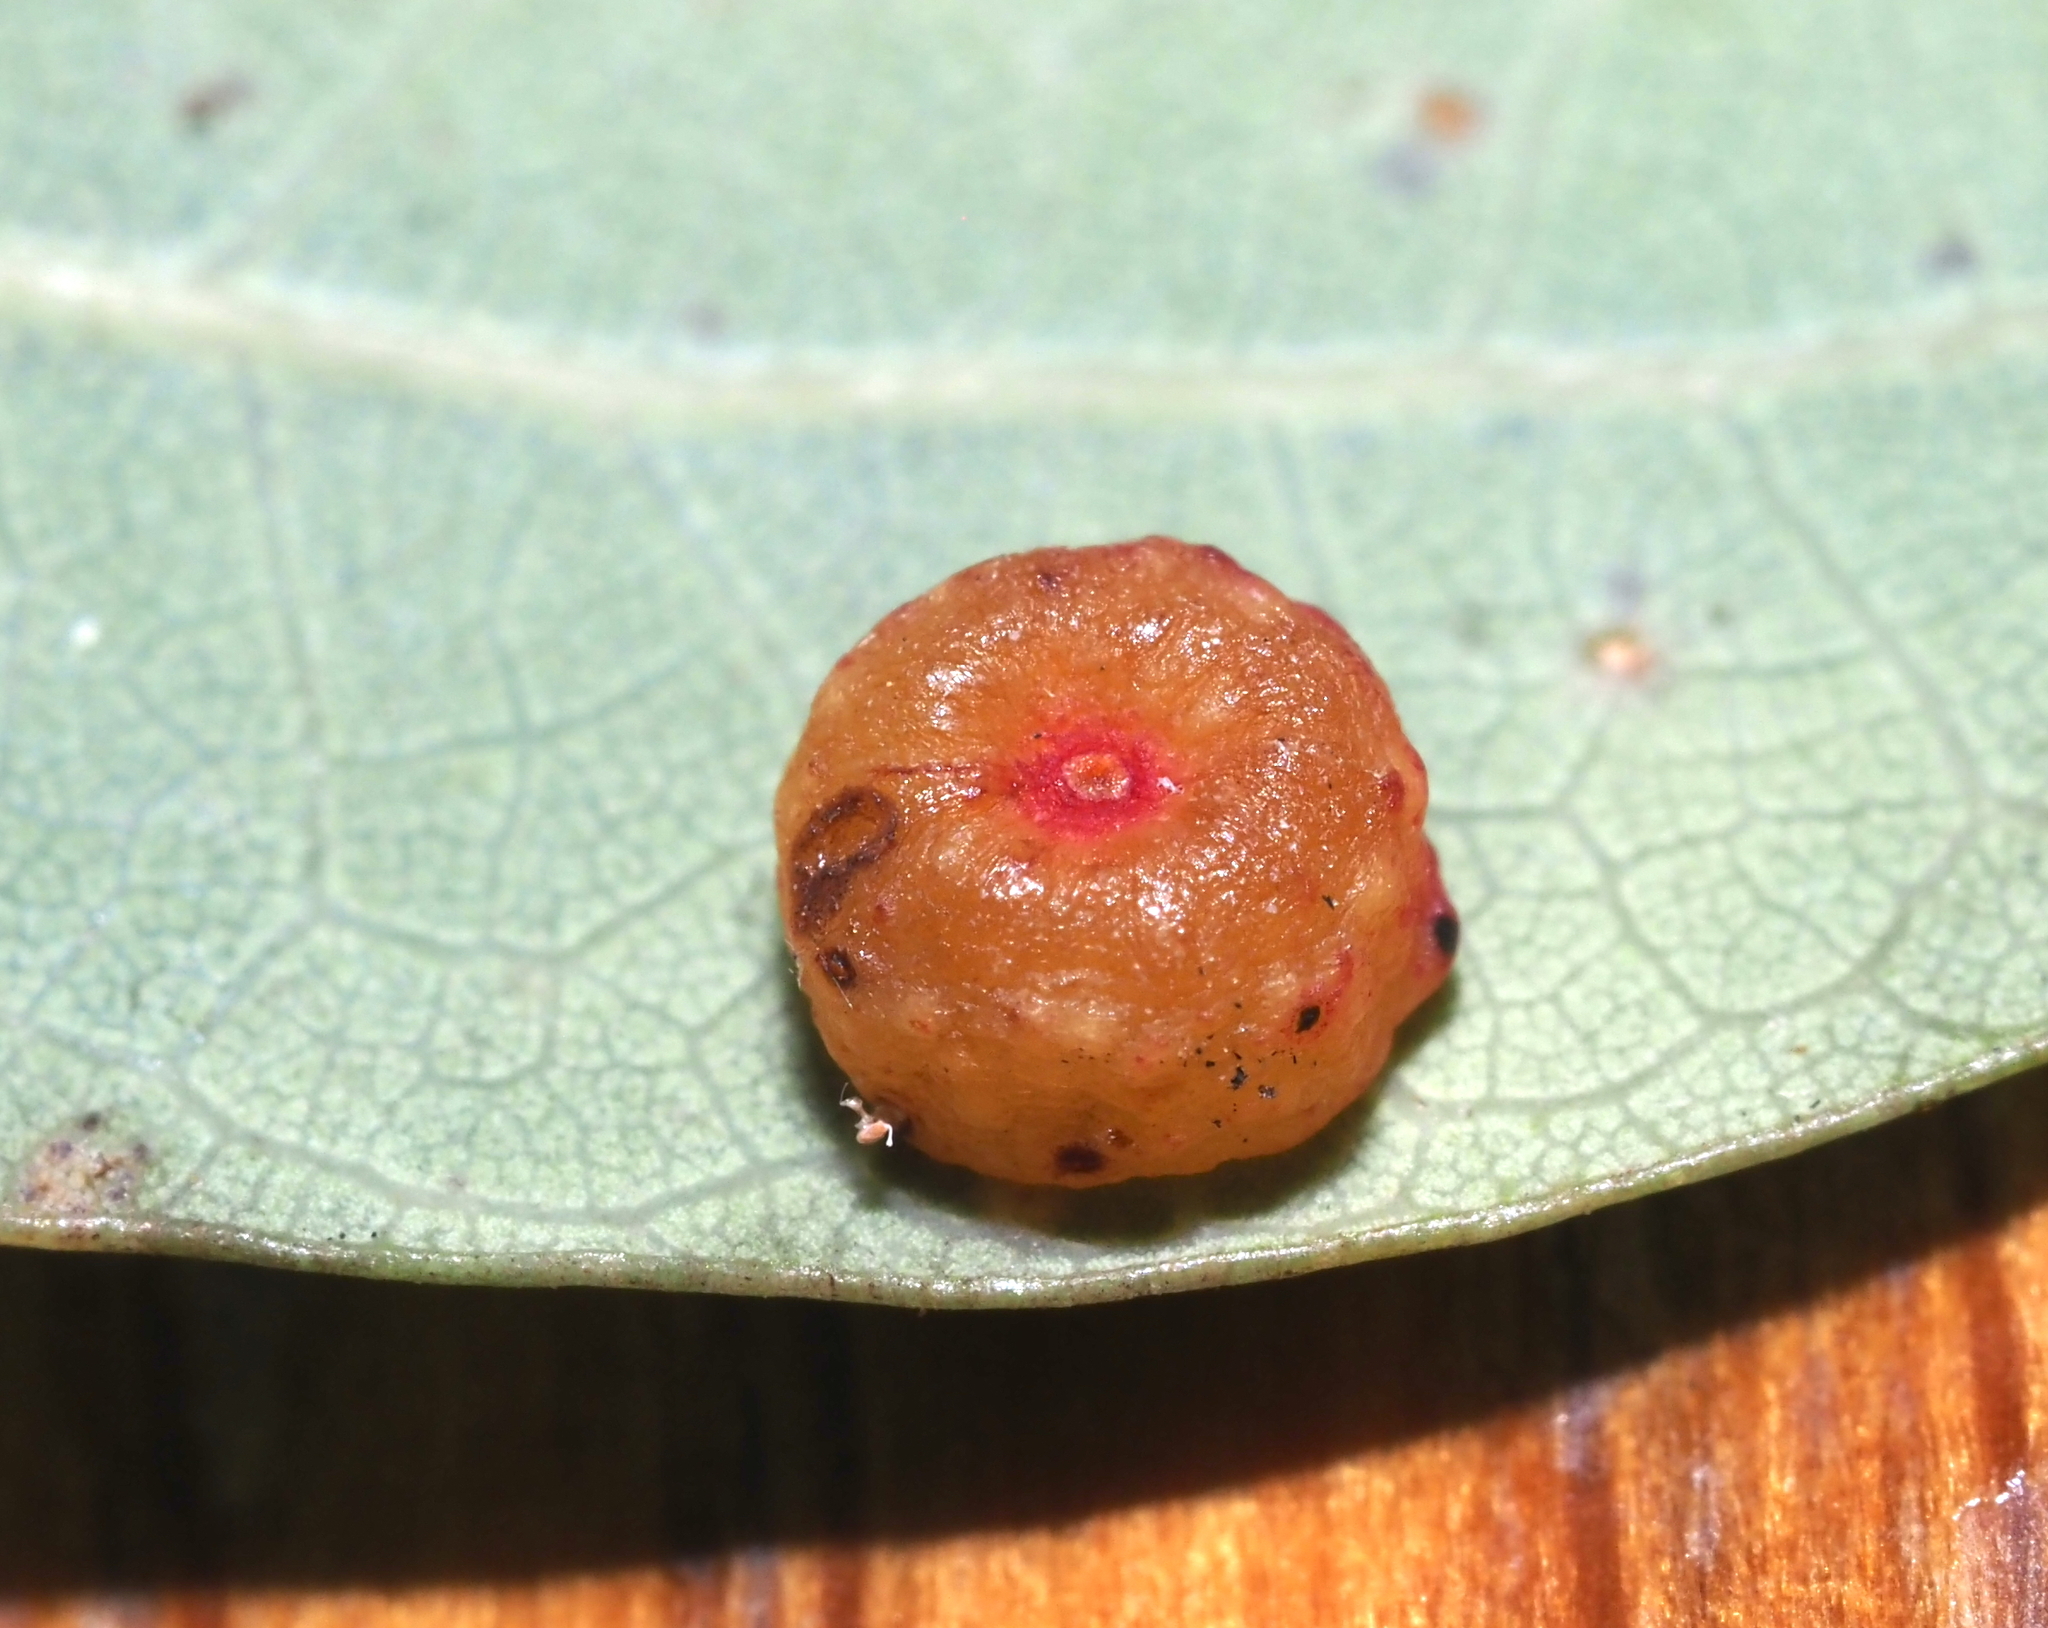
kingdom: Animalia
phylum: Arthropoda
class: Insecta
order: Hymenoptera
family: Cynipidae
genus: Andricus
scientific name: Andricus
